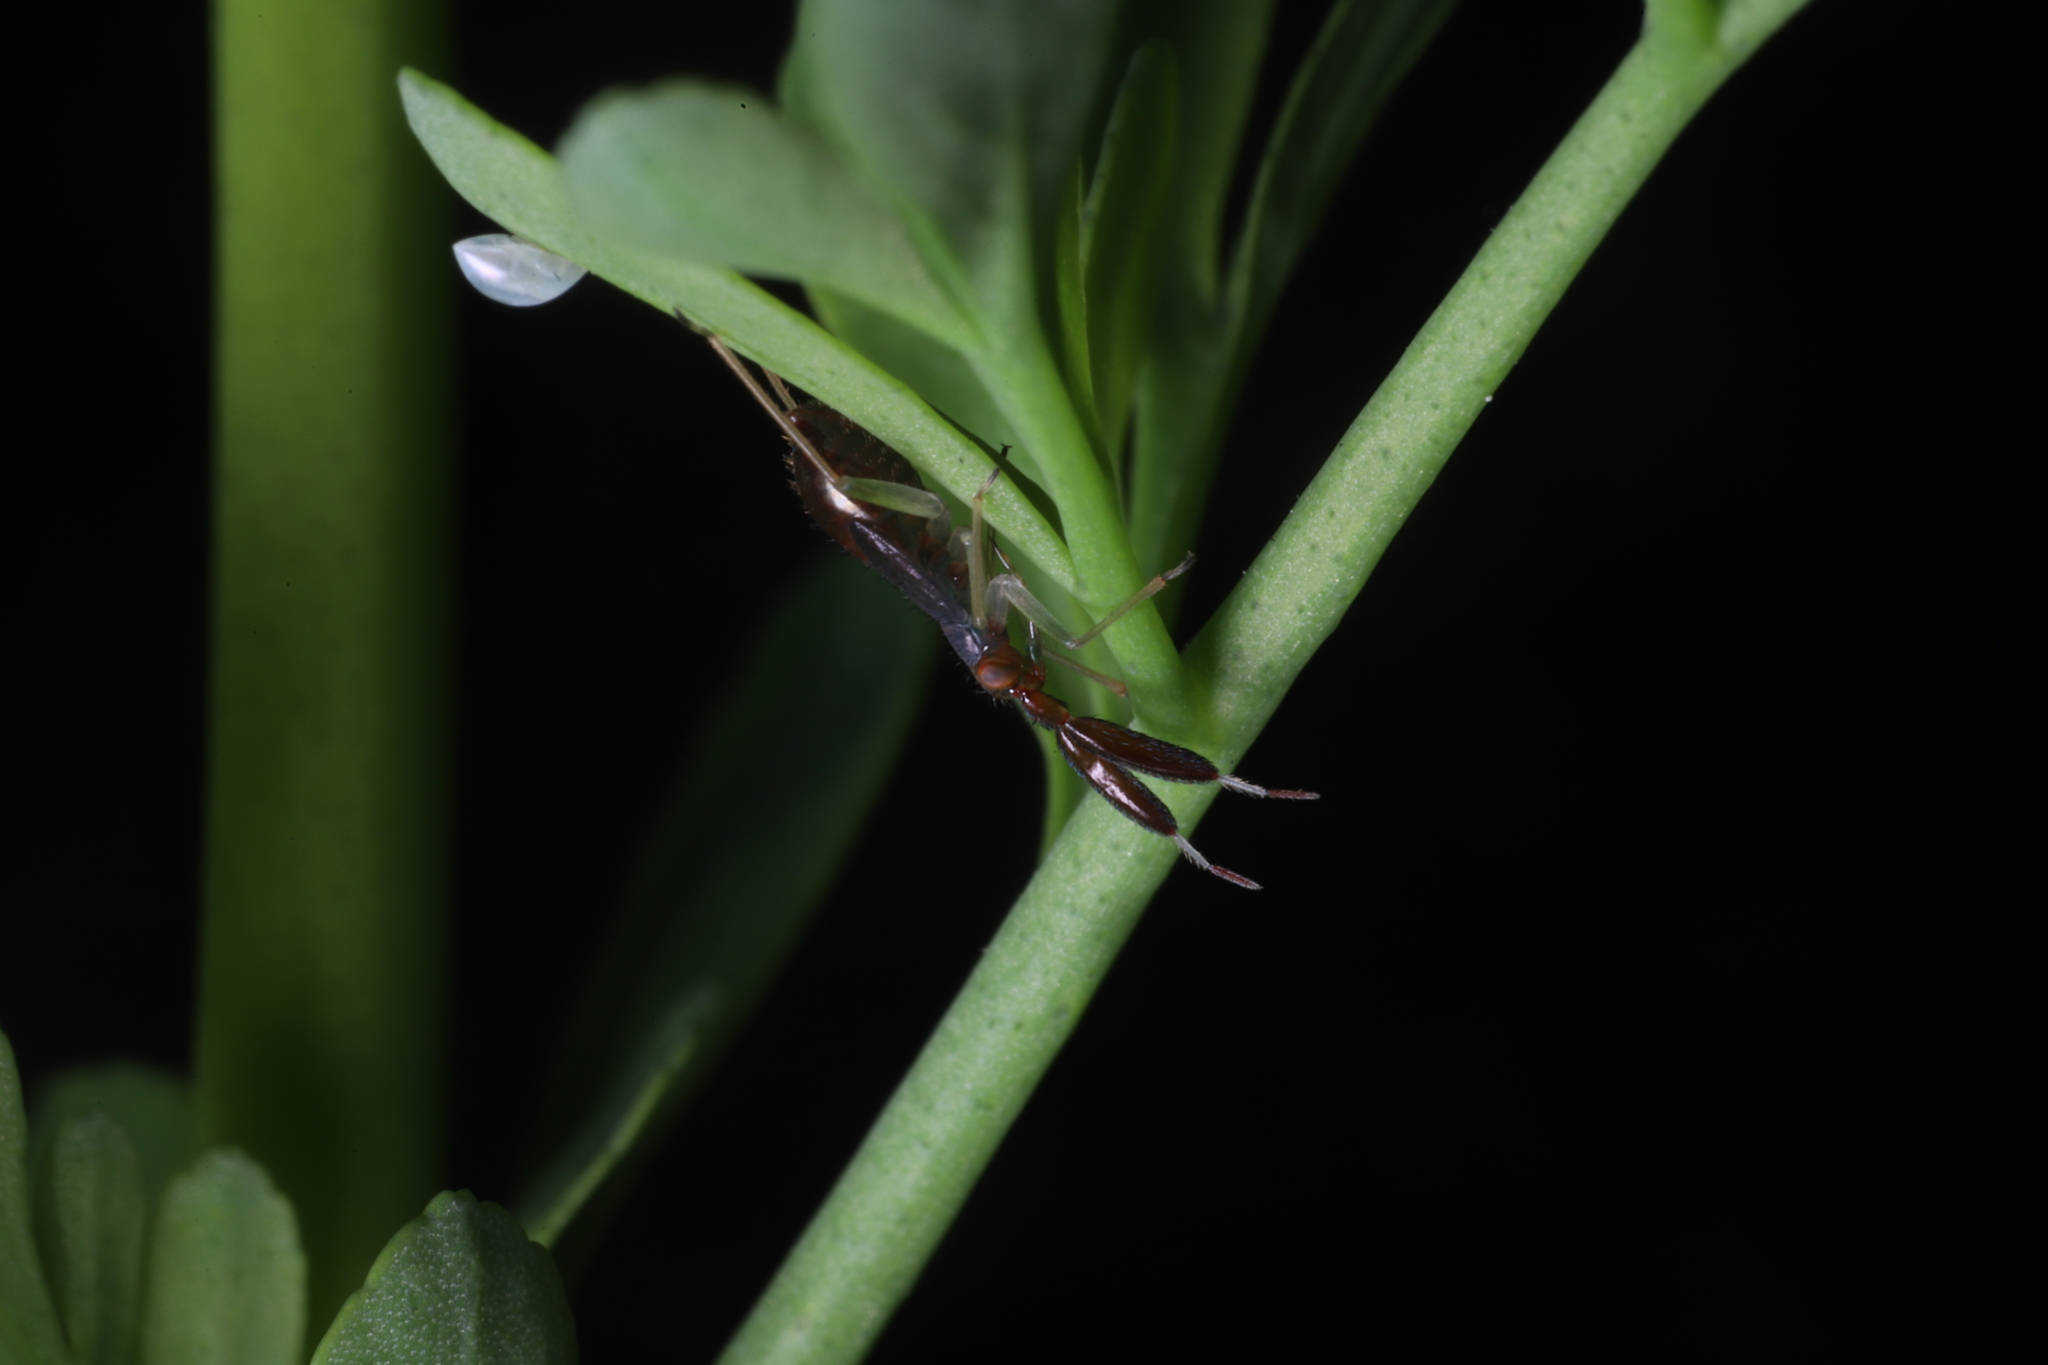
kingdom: Animalia
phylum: Arthropoda
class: Insecta
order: Hemiptera
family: Miridae
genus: Heterotoma
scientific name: Heterotoma planicornis
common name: Plant bug
